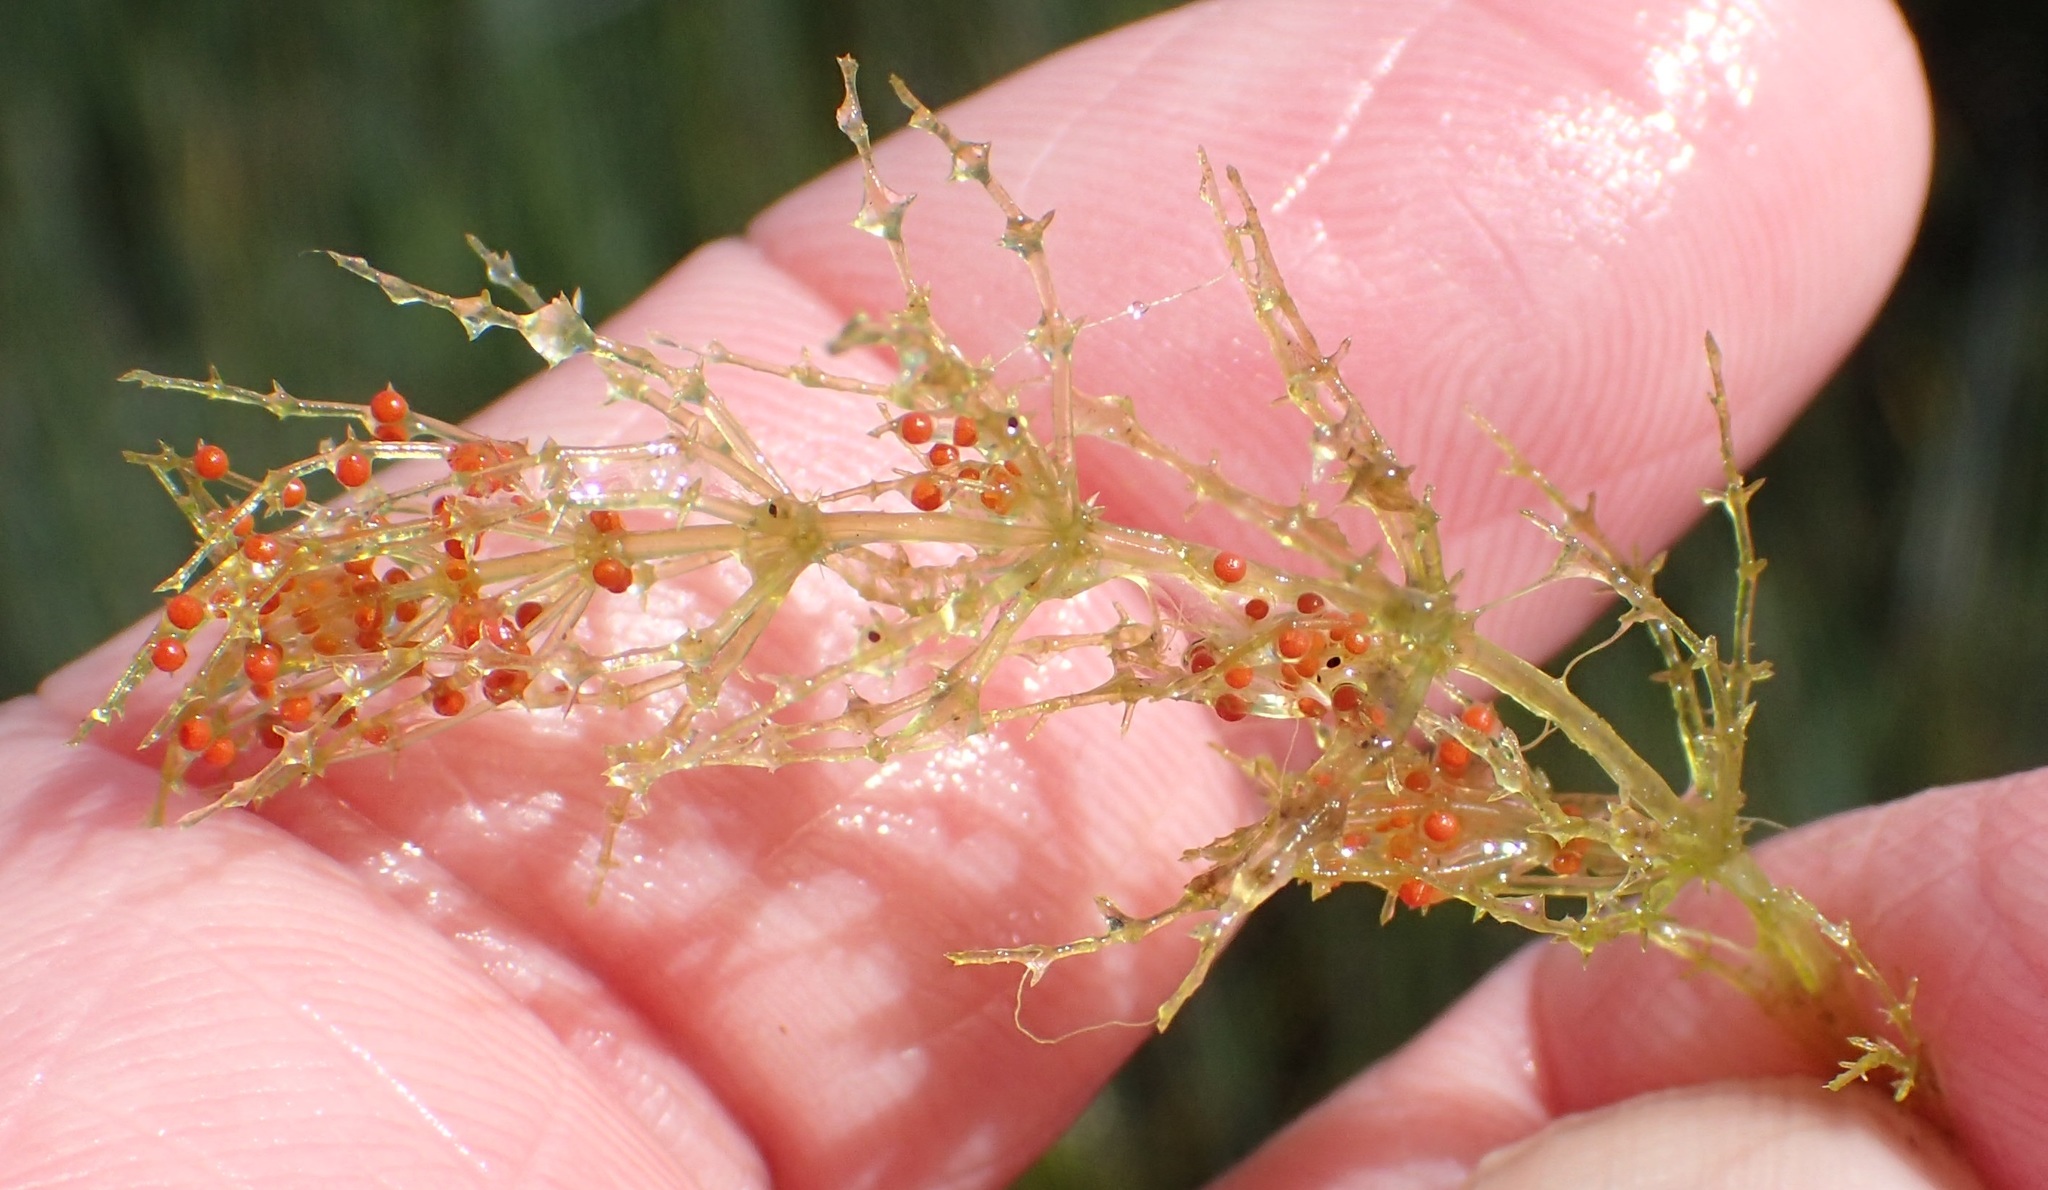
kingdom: Plantae
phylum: Charophyta
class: Charophyceae
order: Charales
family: Characeae
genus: Chara
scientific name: Chara
